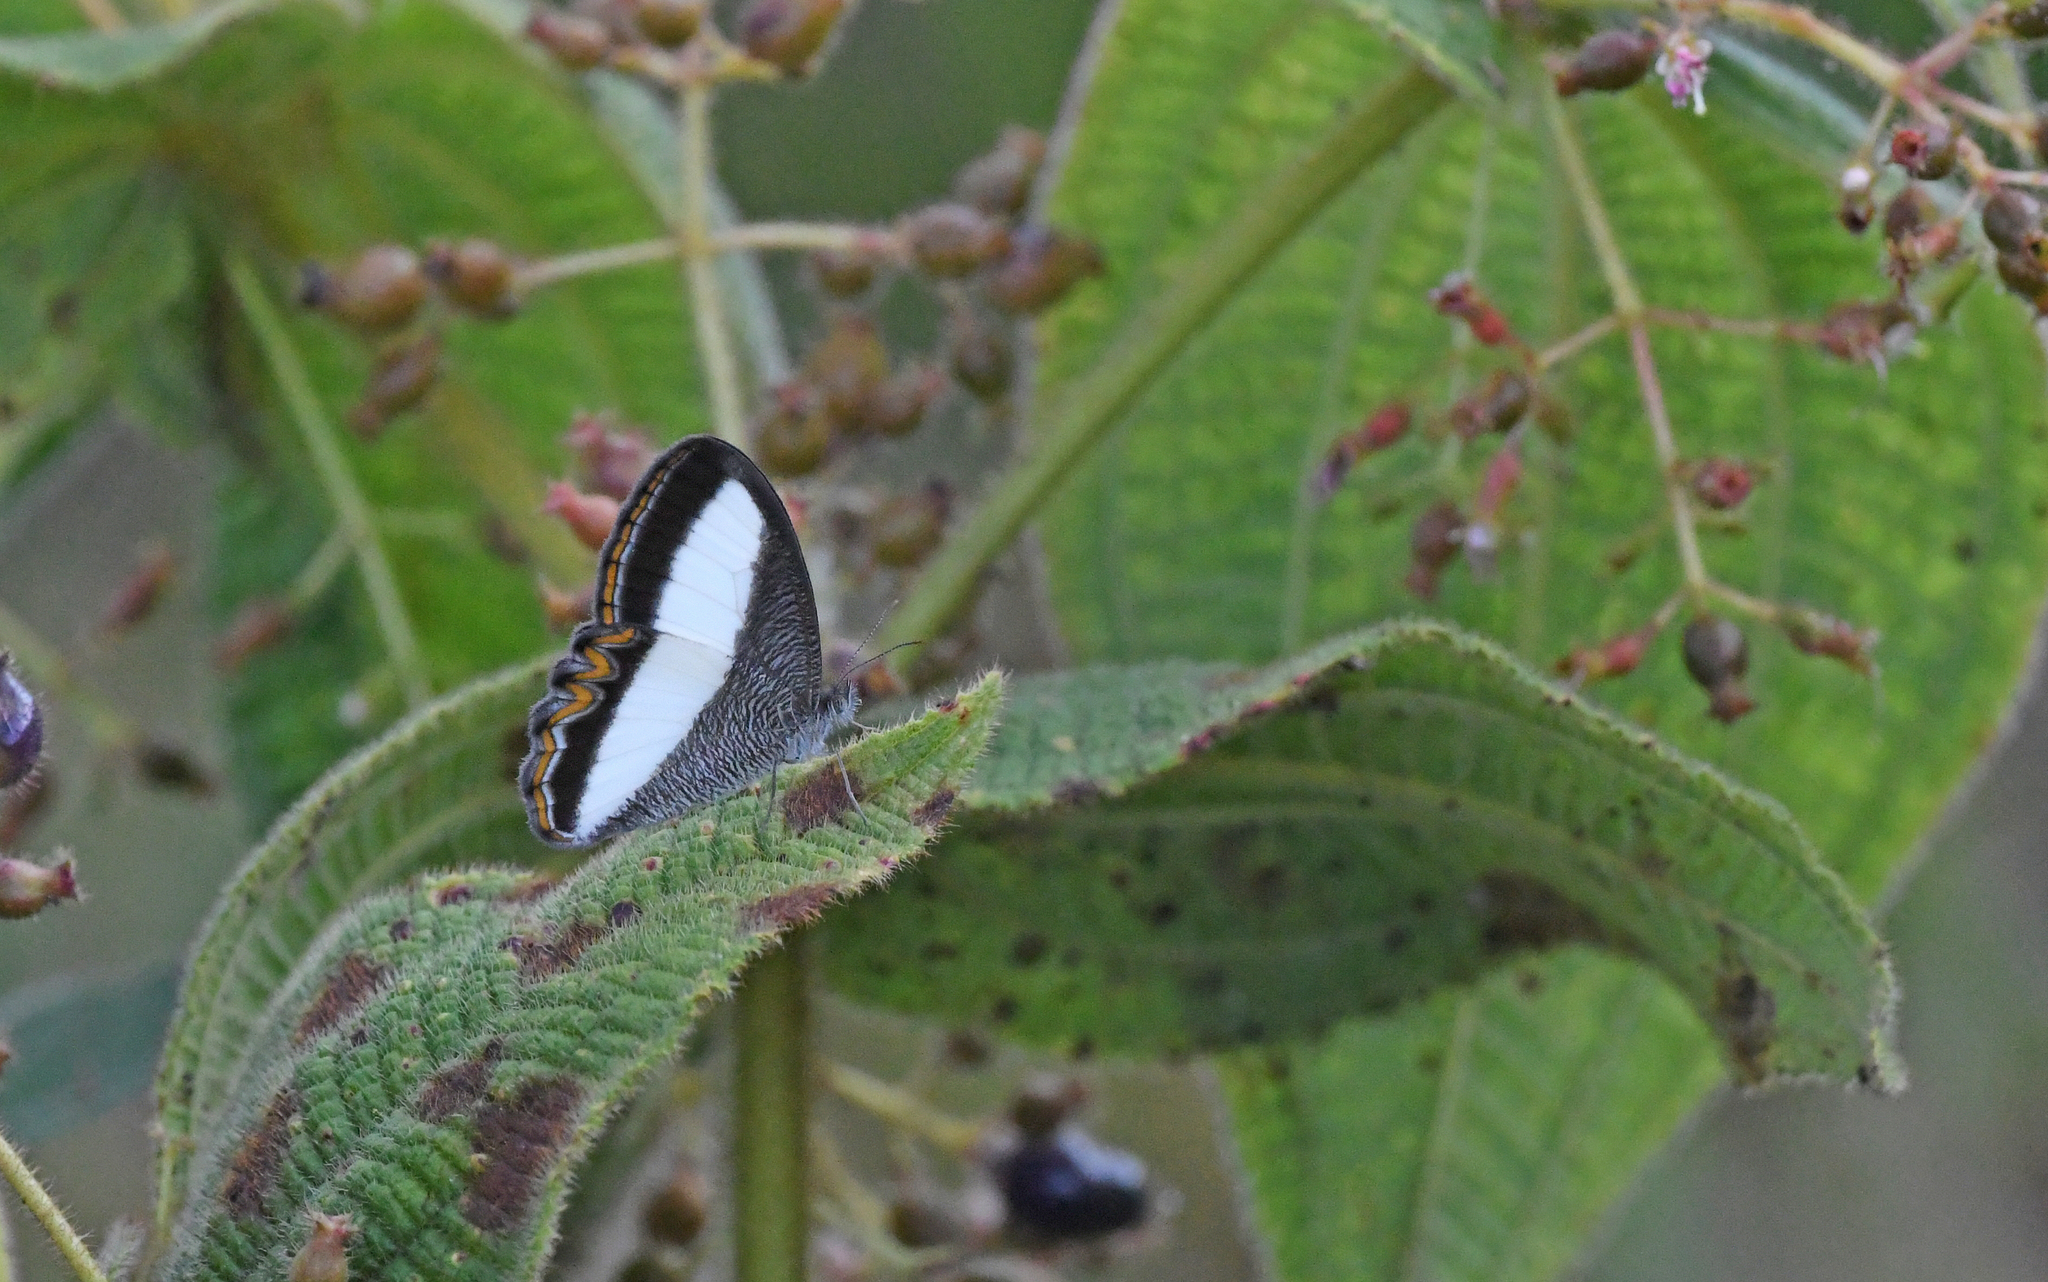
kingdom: Animalia
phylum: Arthropoda
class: Insecta
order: Lepidoptera
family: Nymphalidae
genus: Oressinoma
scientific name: Oressinoma typhla
